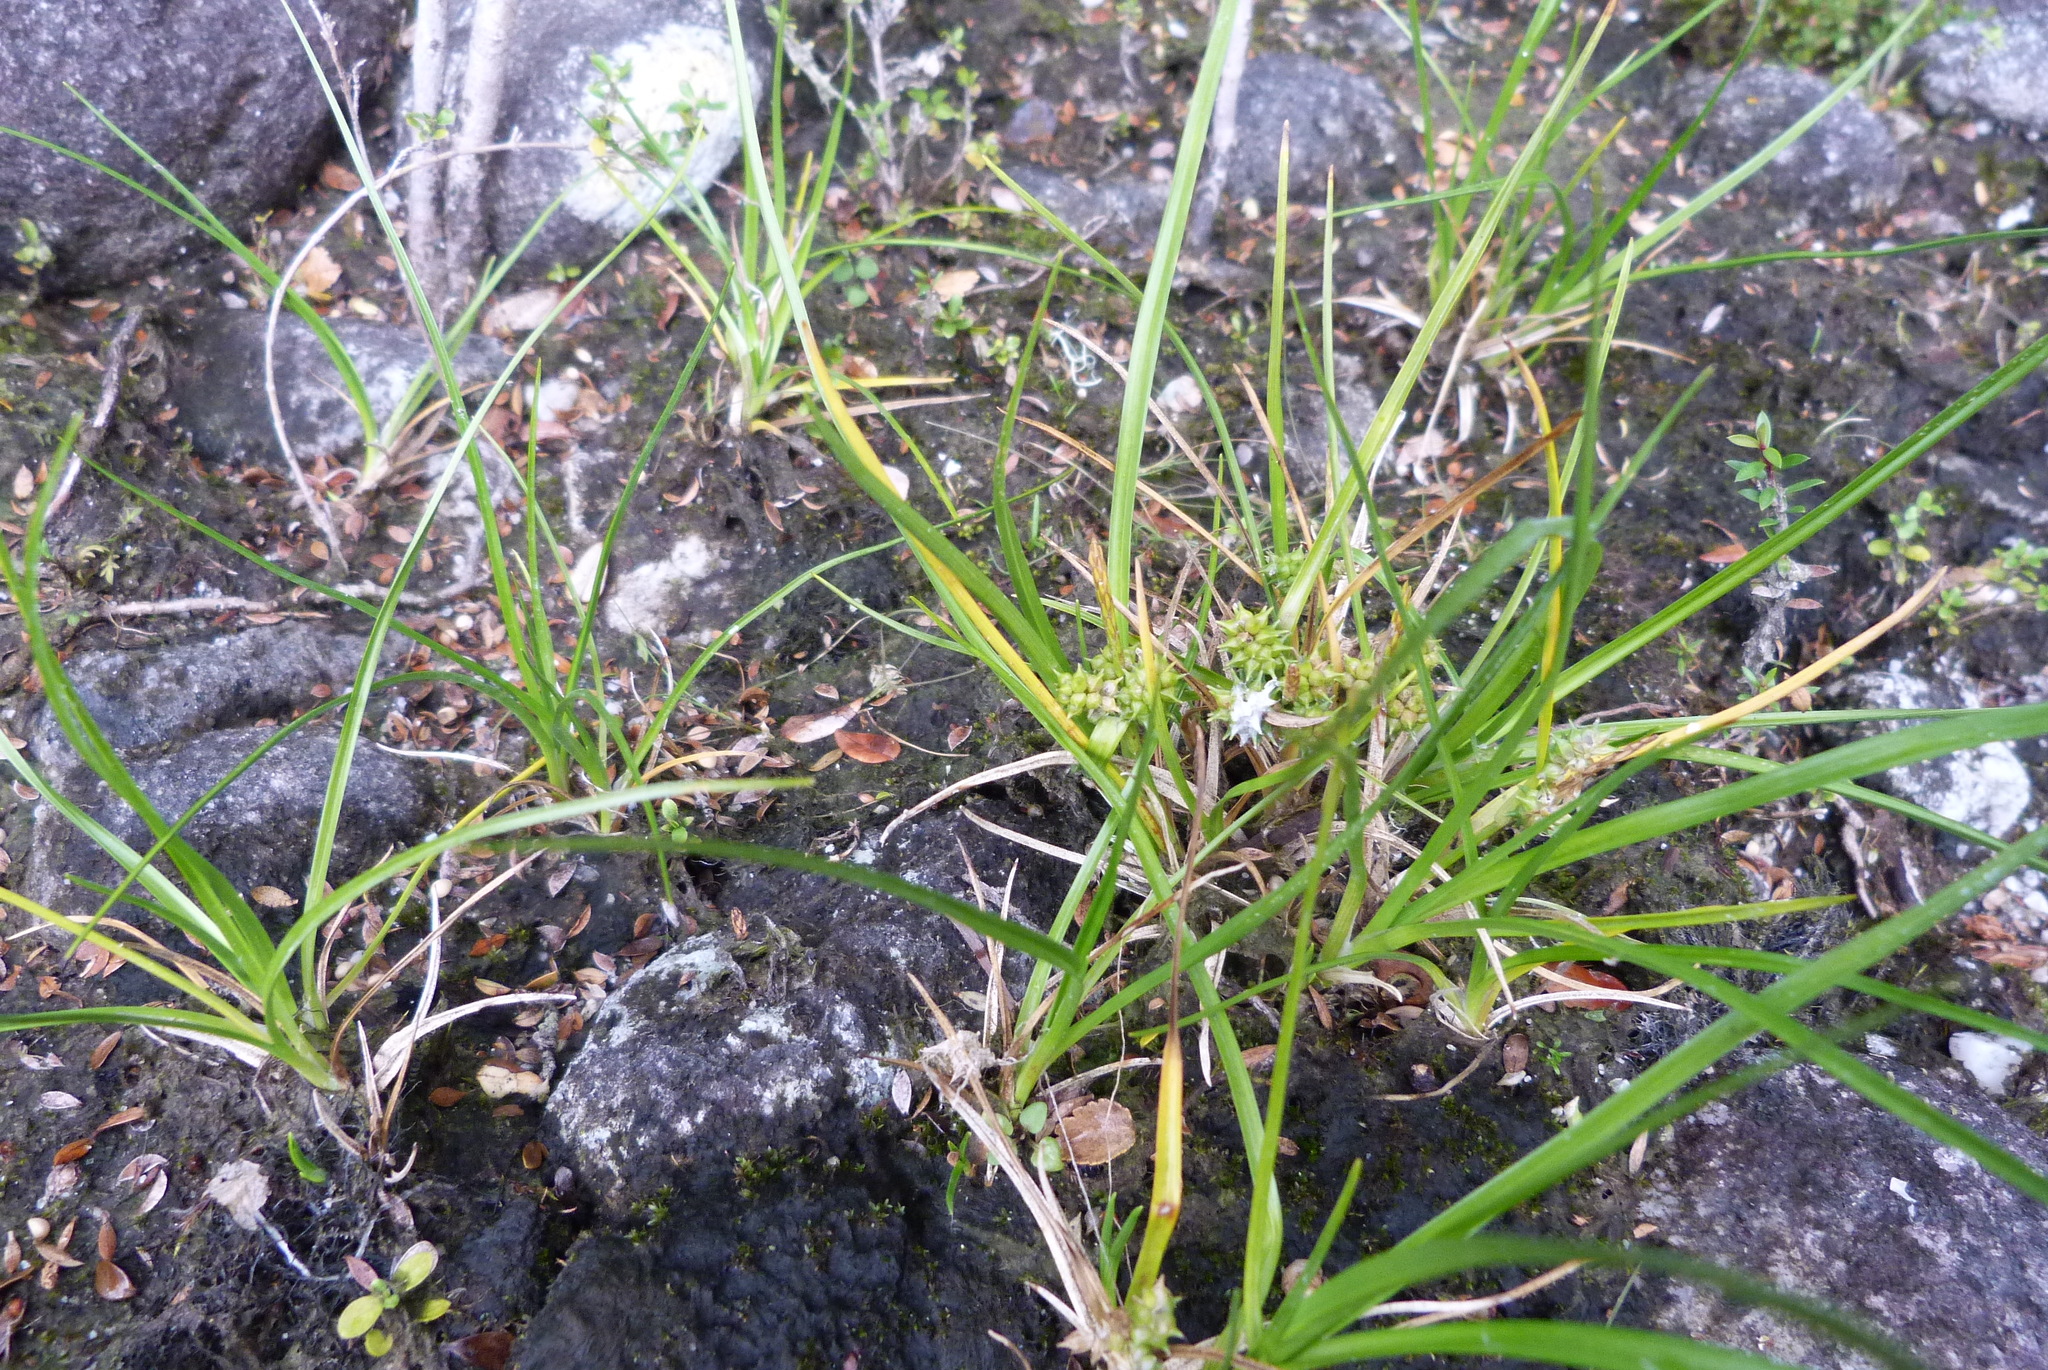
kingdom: Plantae
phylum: Tracheophyta
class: Liliopsida
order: Poales
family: Cyperaceae
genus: Carex
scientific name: Carex flaviformis
